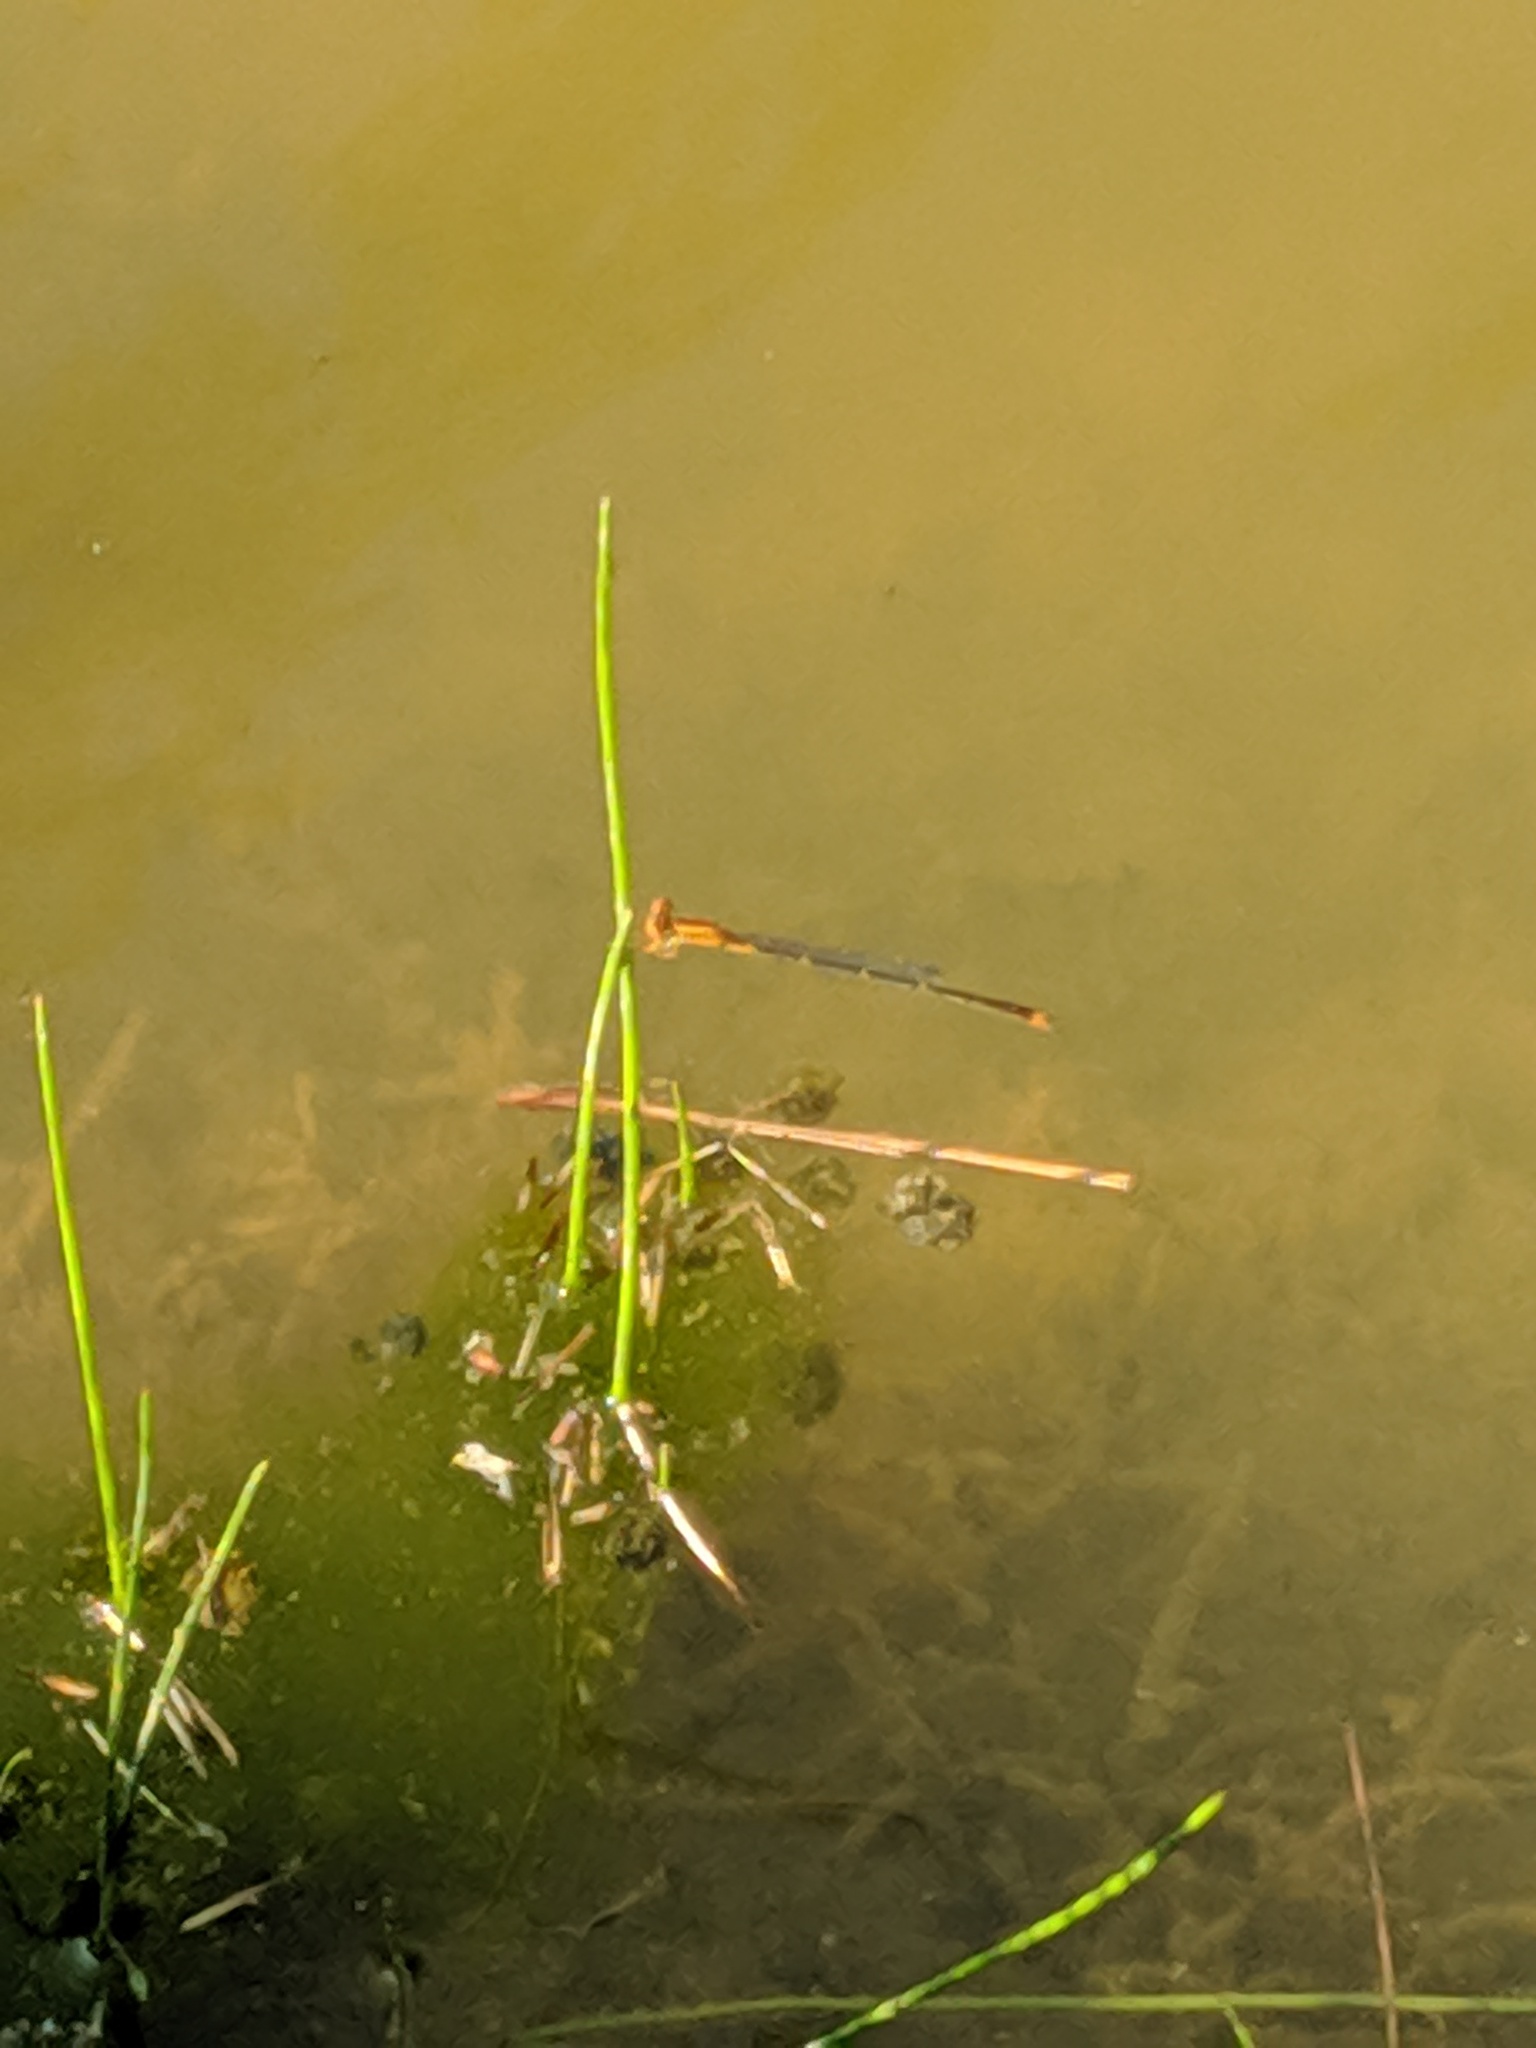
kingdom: Animalia
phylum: Arthropoda
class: Insecta
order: Odonata
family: Coenagrionidae
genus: Enallagma
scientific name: Enallagma signatum
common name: Orange bluet
